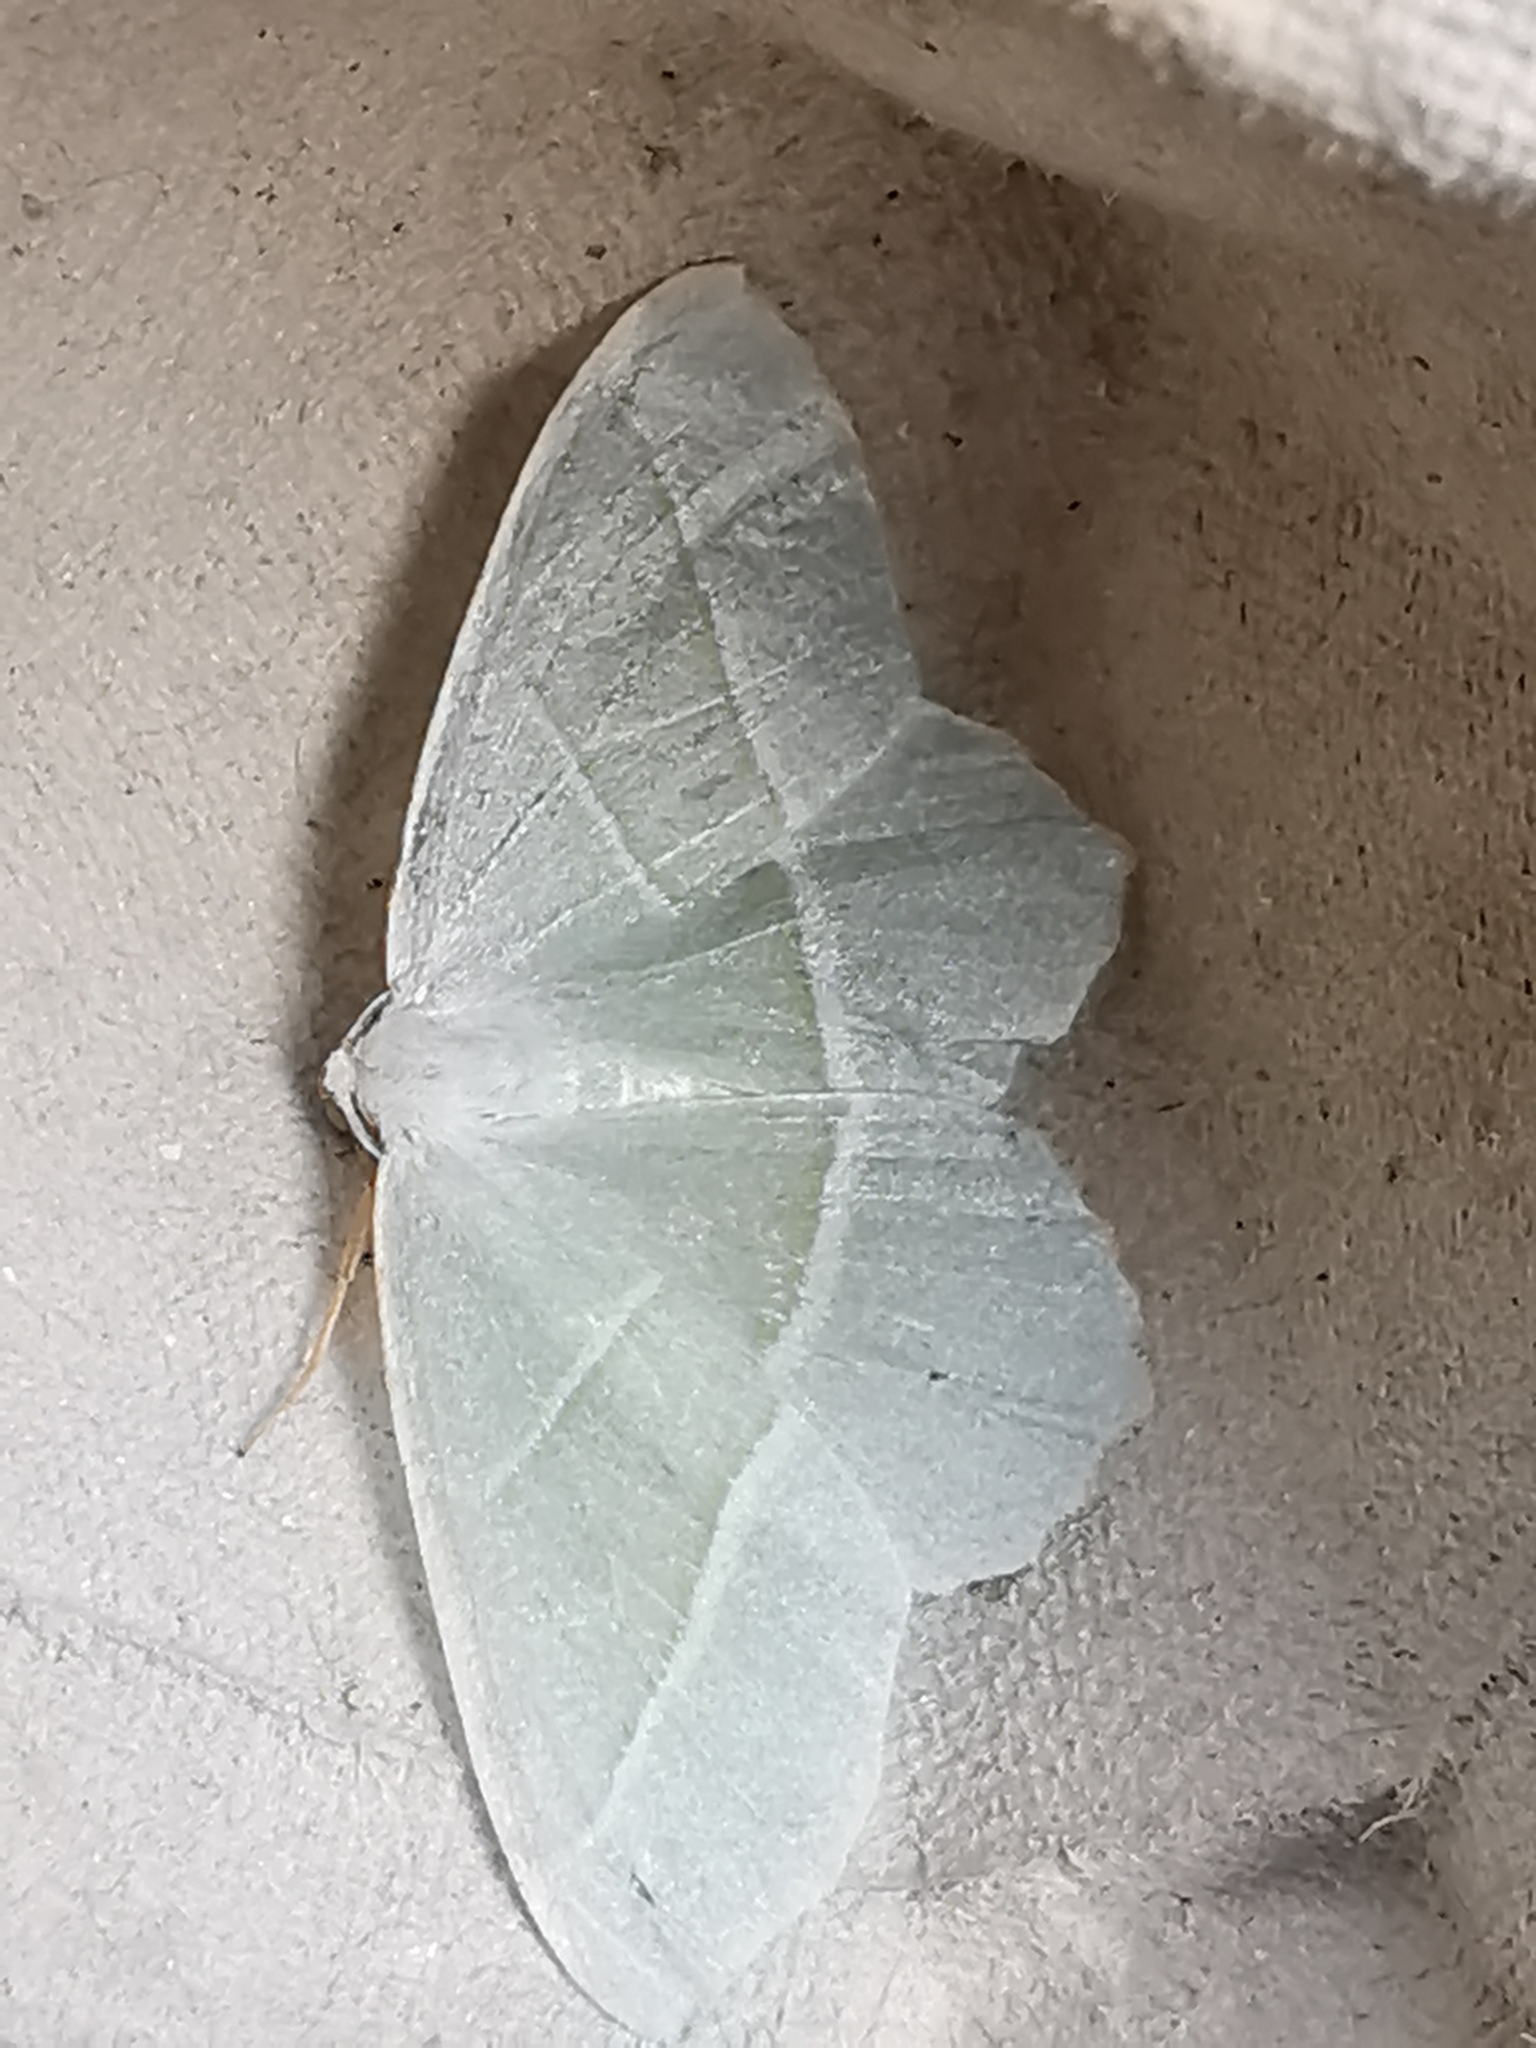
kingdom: Animalia
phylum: Arthropoda
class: Insecta
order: Lepidoptera
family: Geometridae
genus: Campaea
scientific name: Campaea margaritaria
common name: Light emerald
